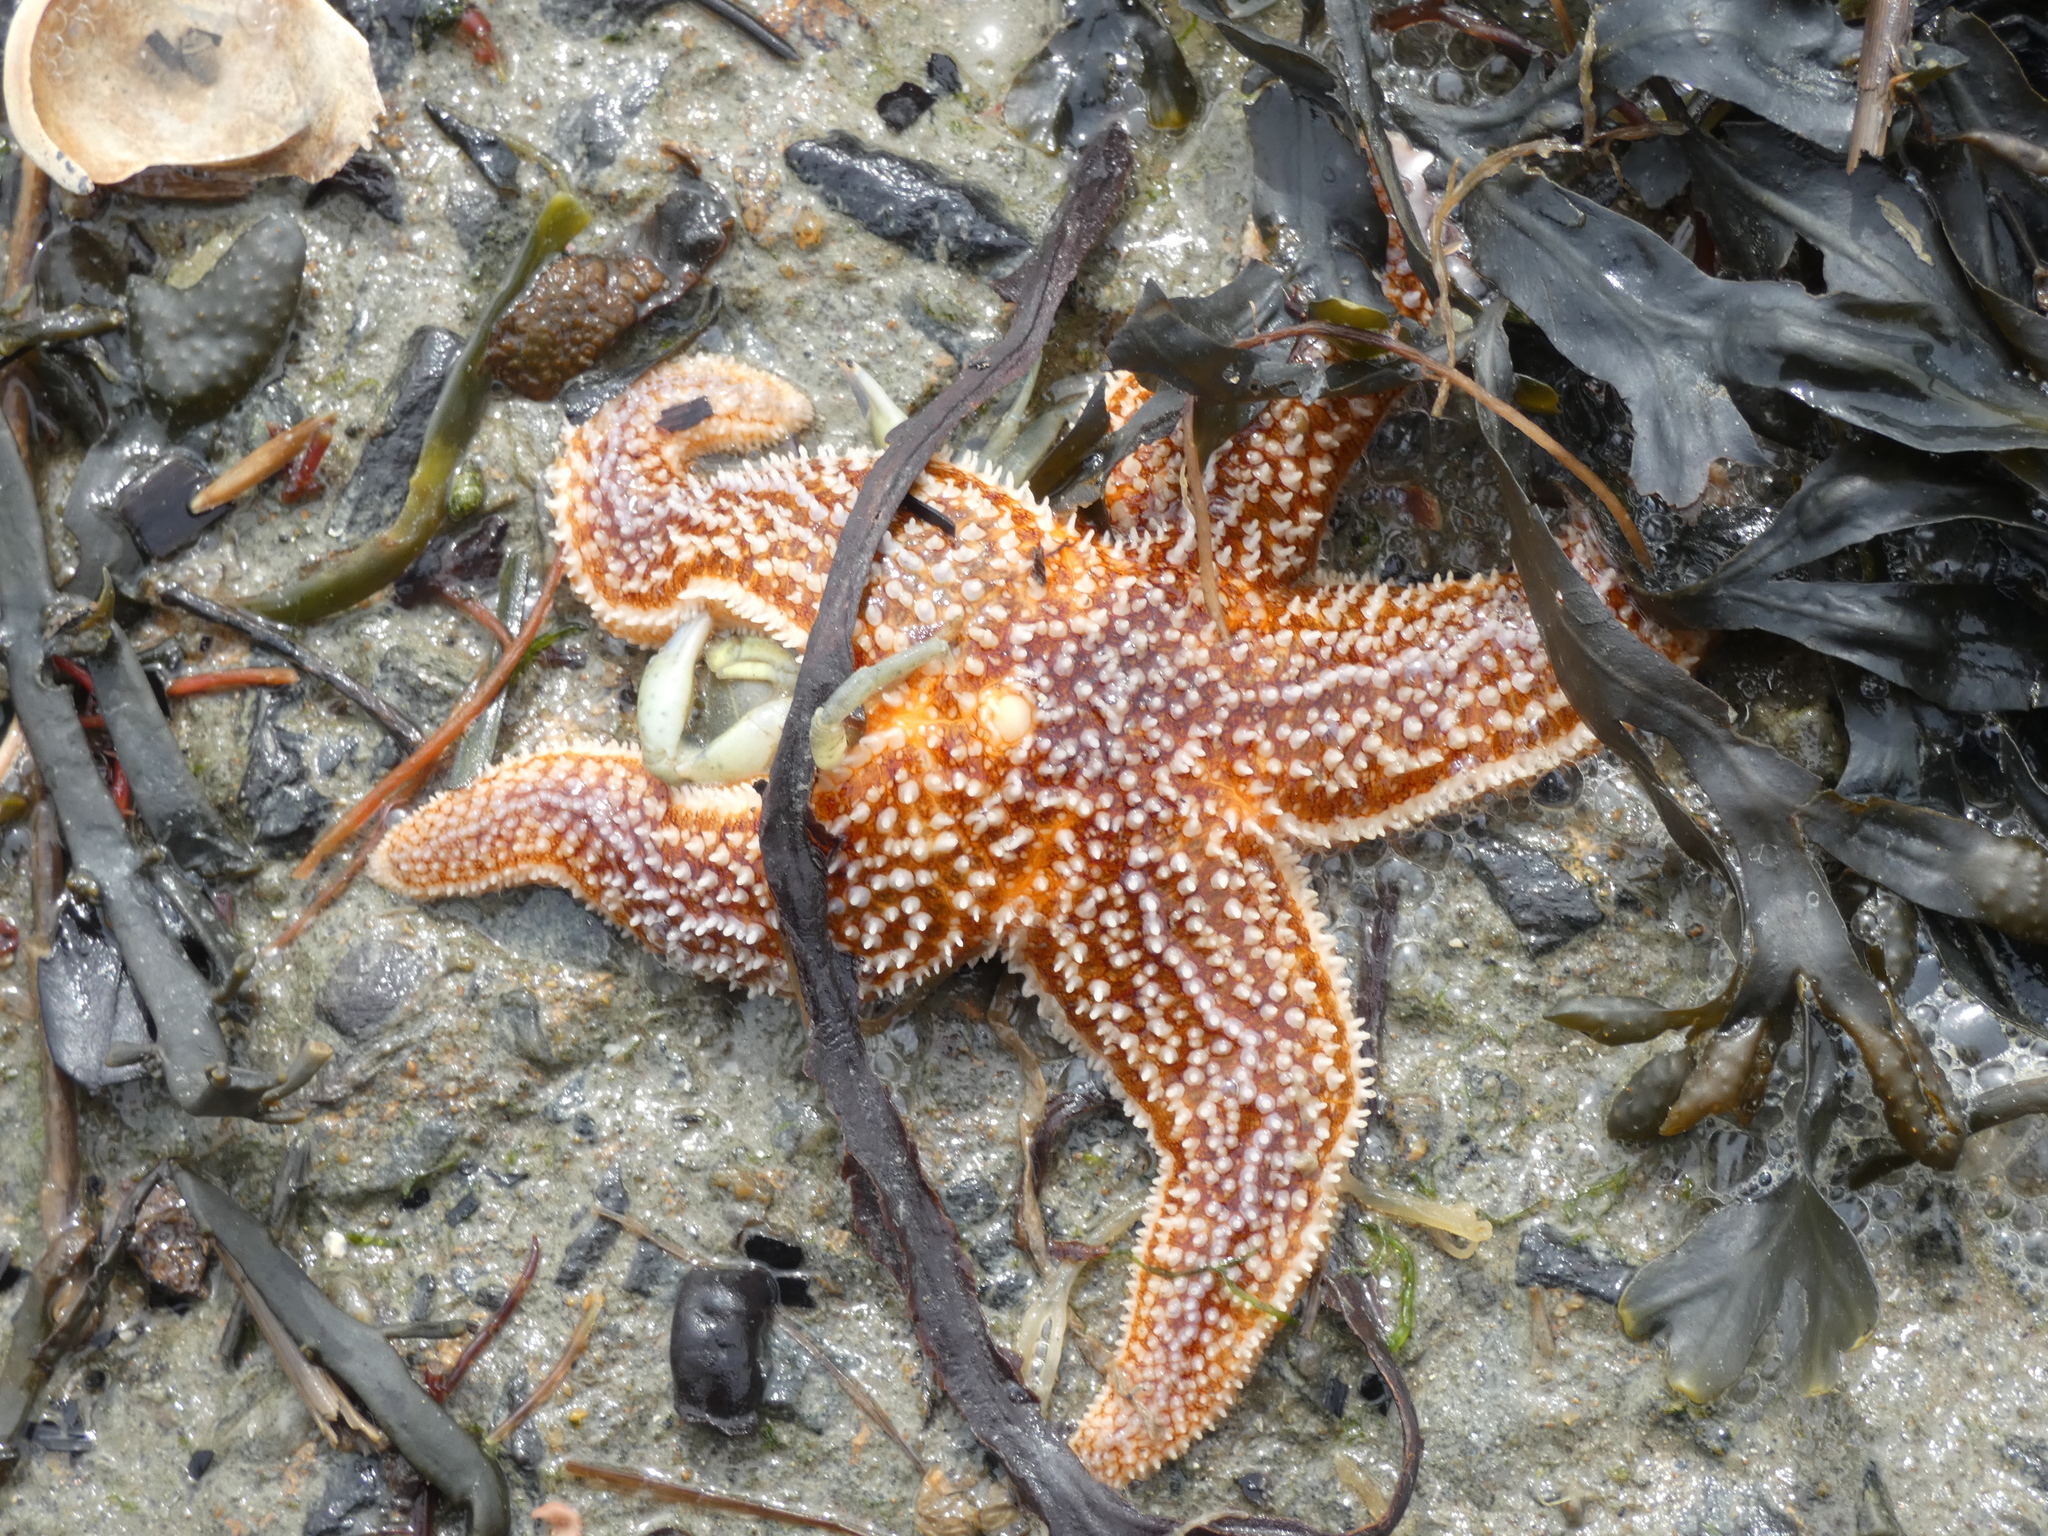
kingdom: Animalia
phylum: Echinodermata
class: Asteroidea
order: Forcipulatida
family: Asteriidae
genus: Asterias
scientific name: Asterias rubens
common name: Common starfish
